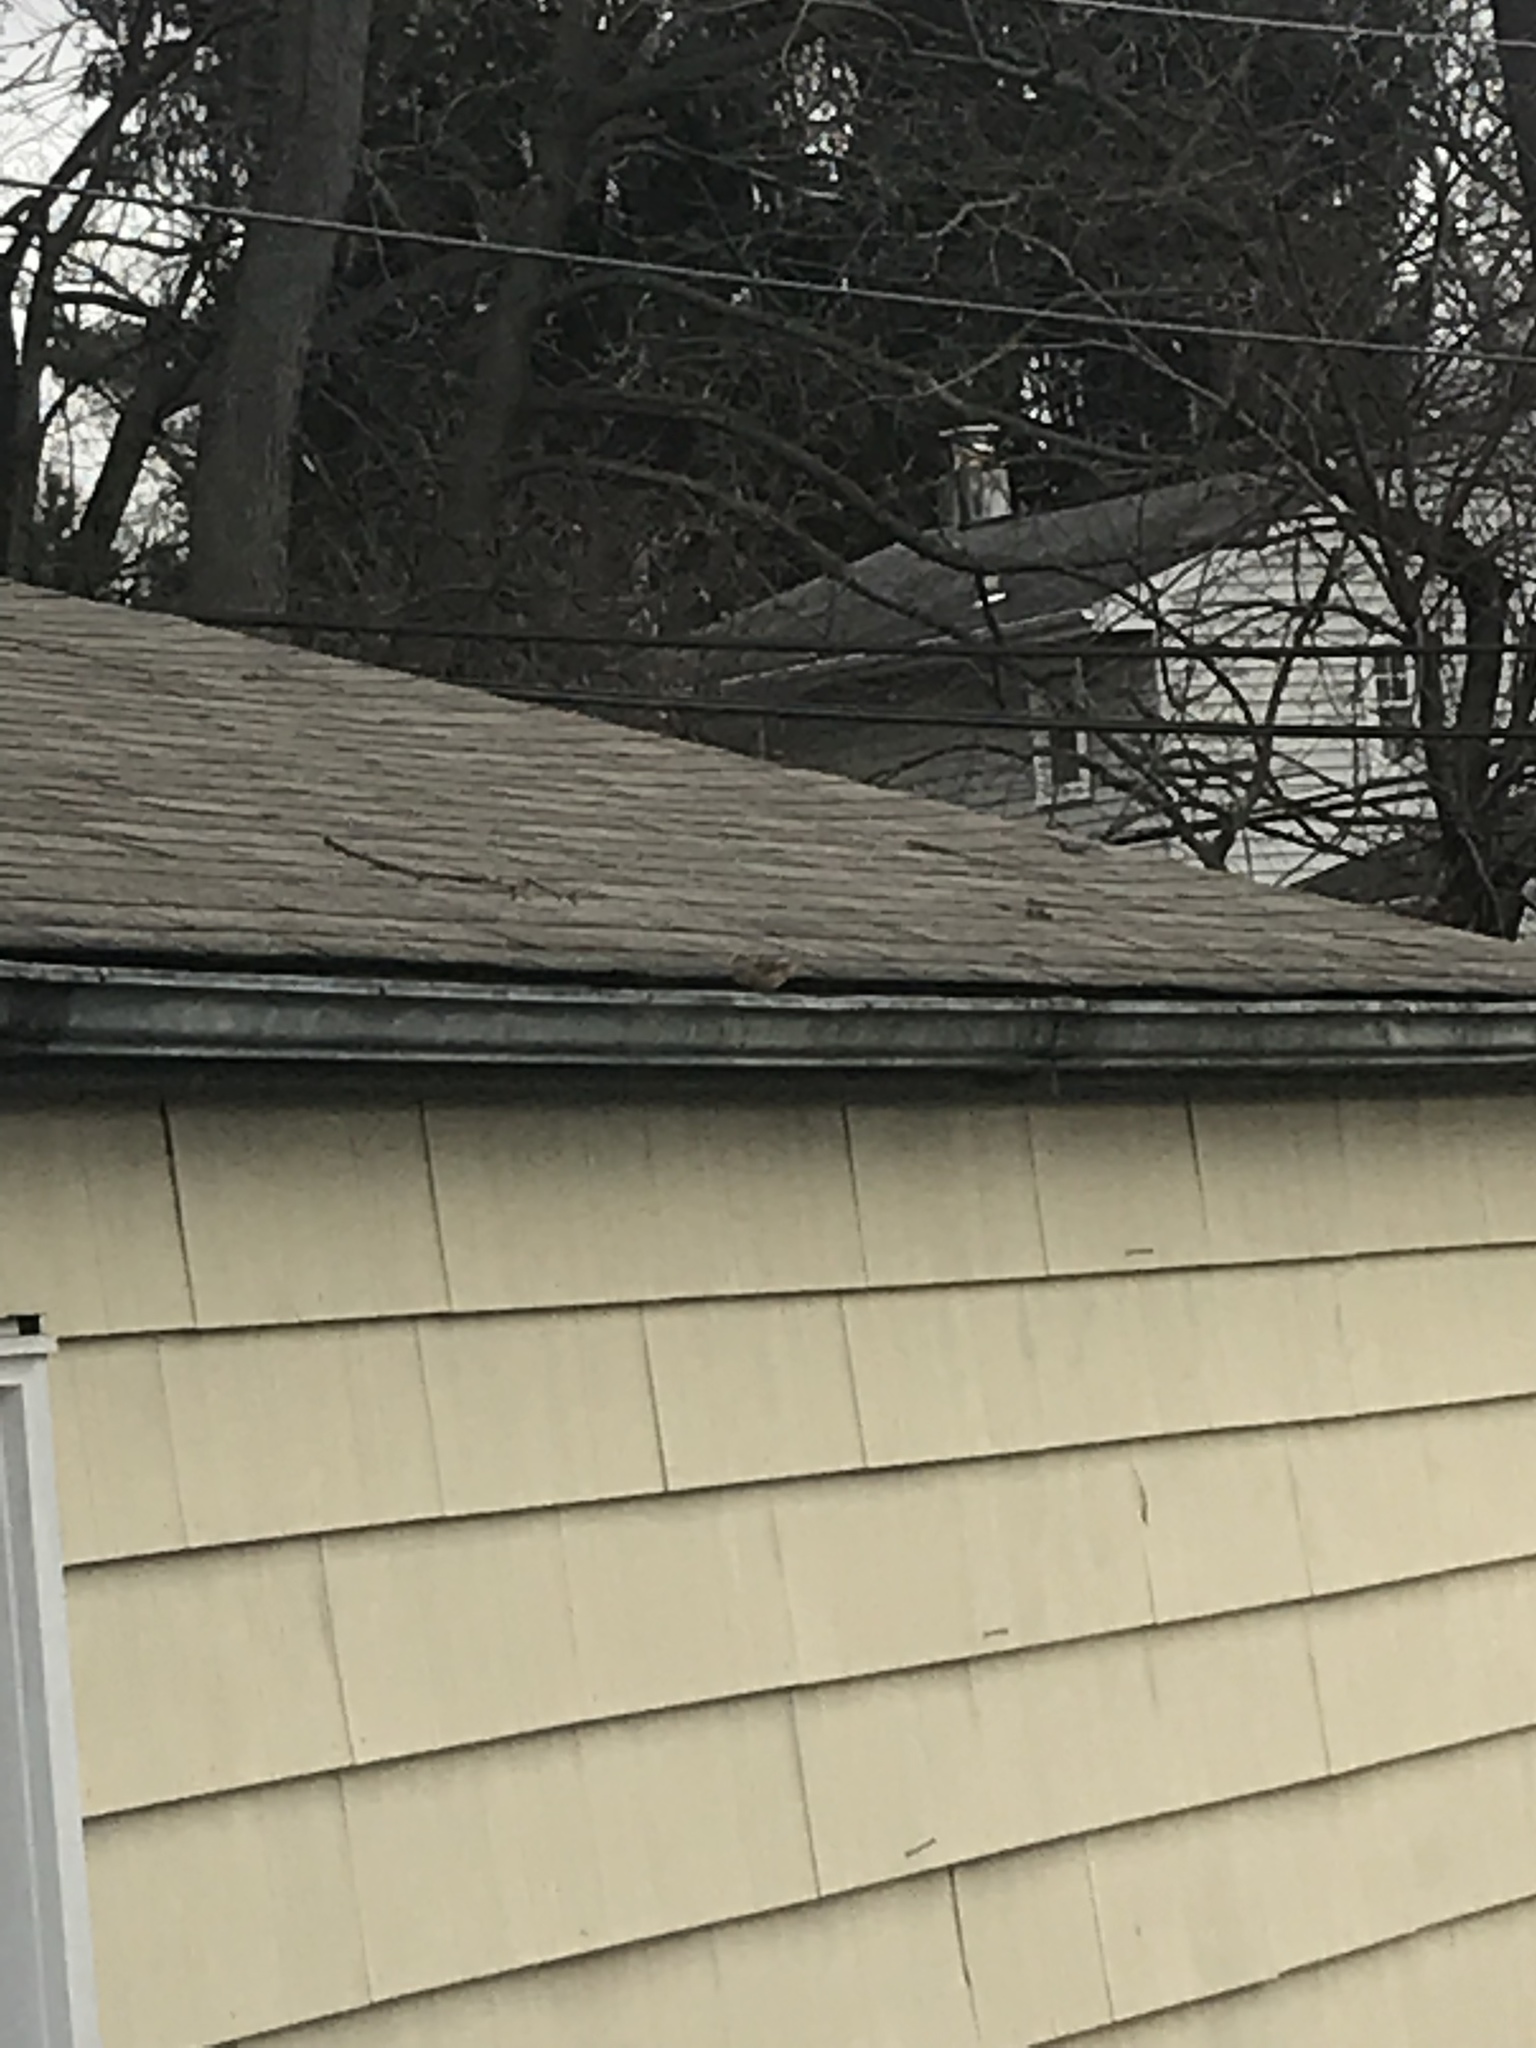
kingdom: Animalia
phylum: Chordata
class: Aves
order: Passeriformes
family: Passeridae
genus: Passer
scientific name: Passer domesticus
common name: House sparrow
